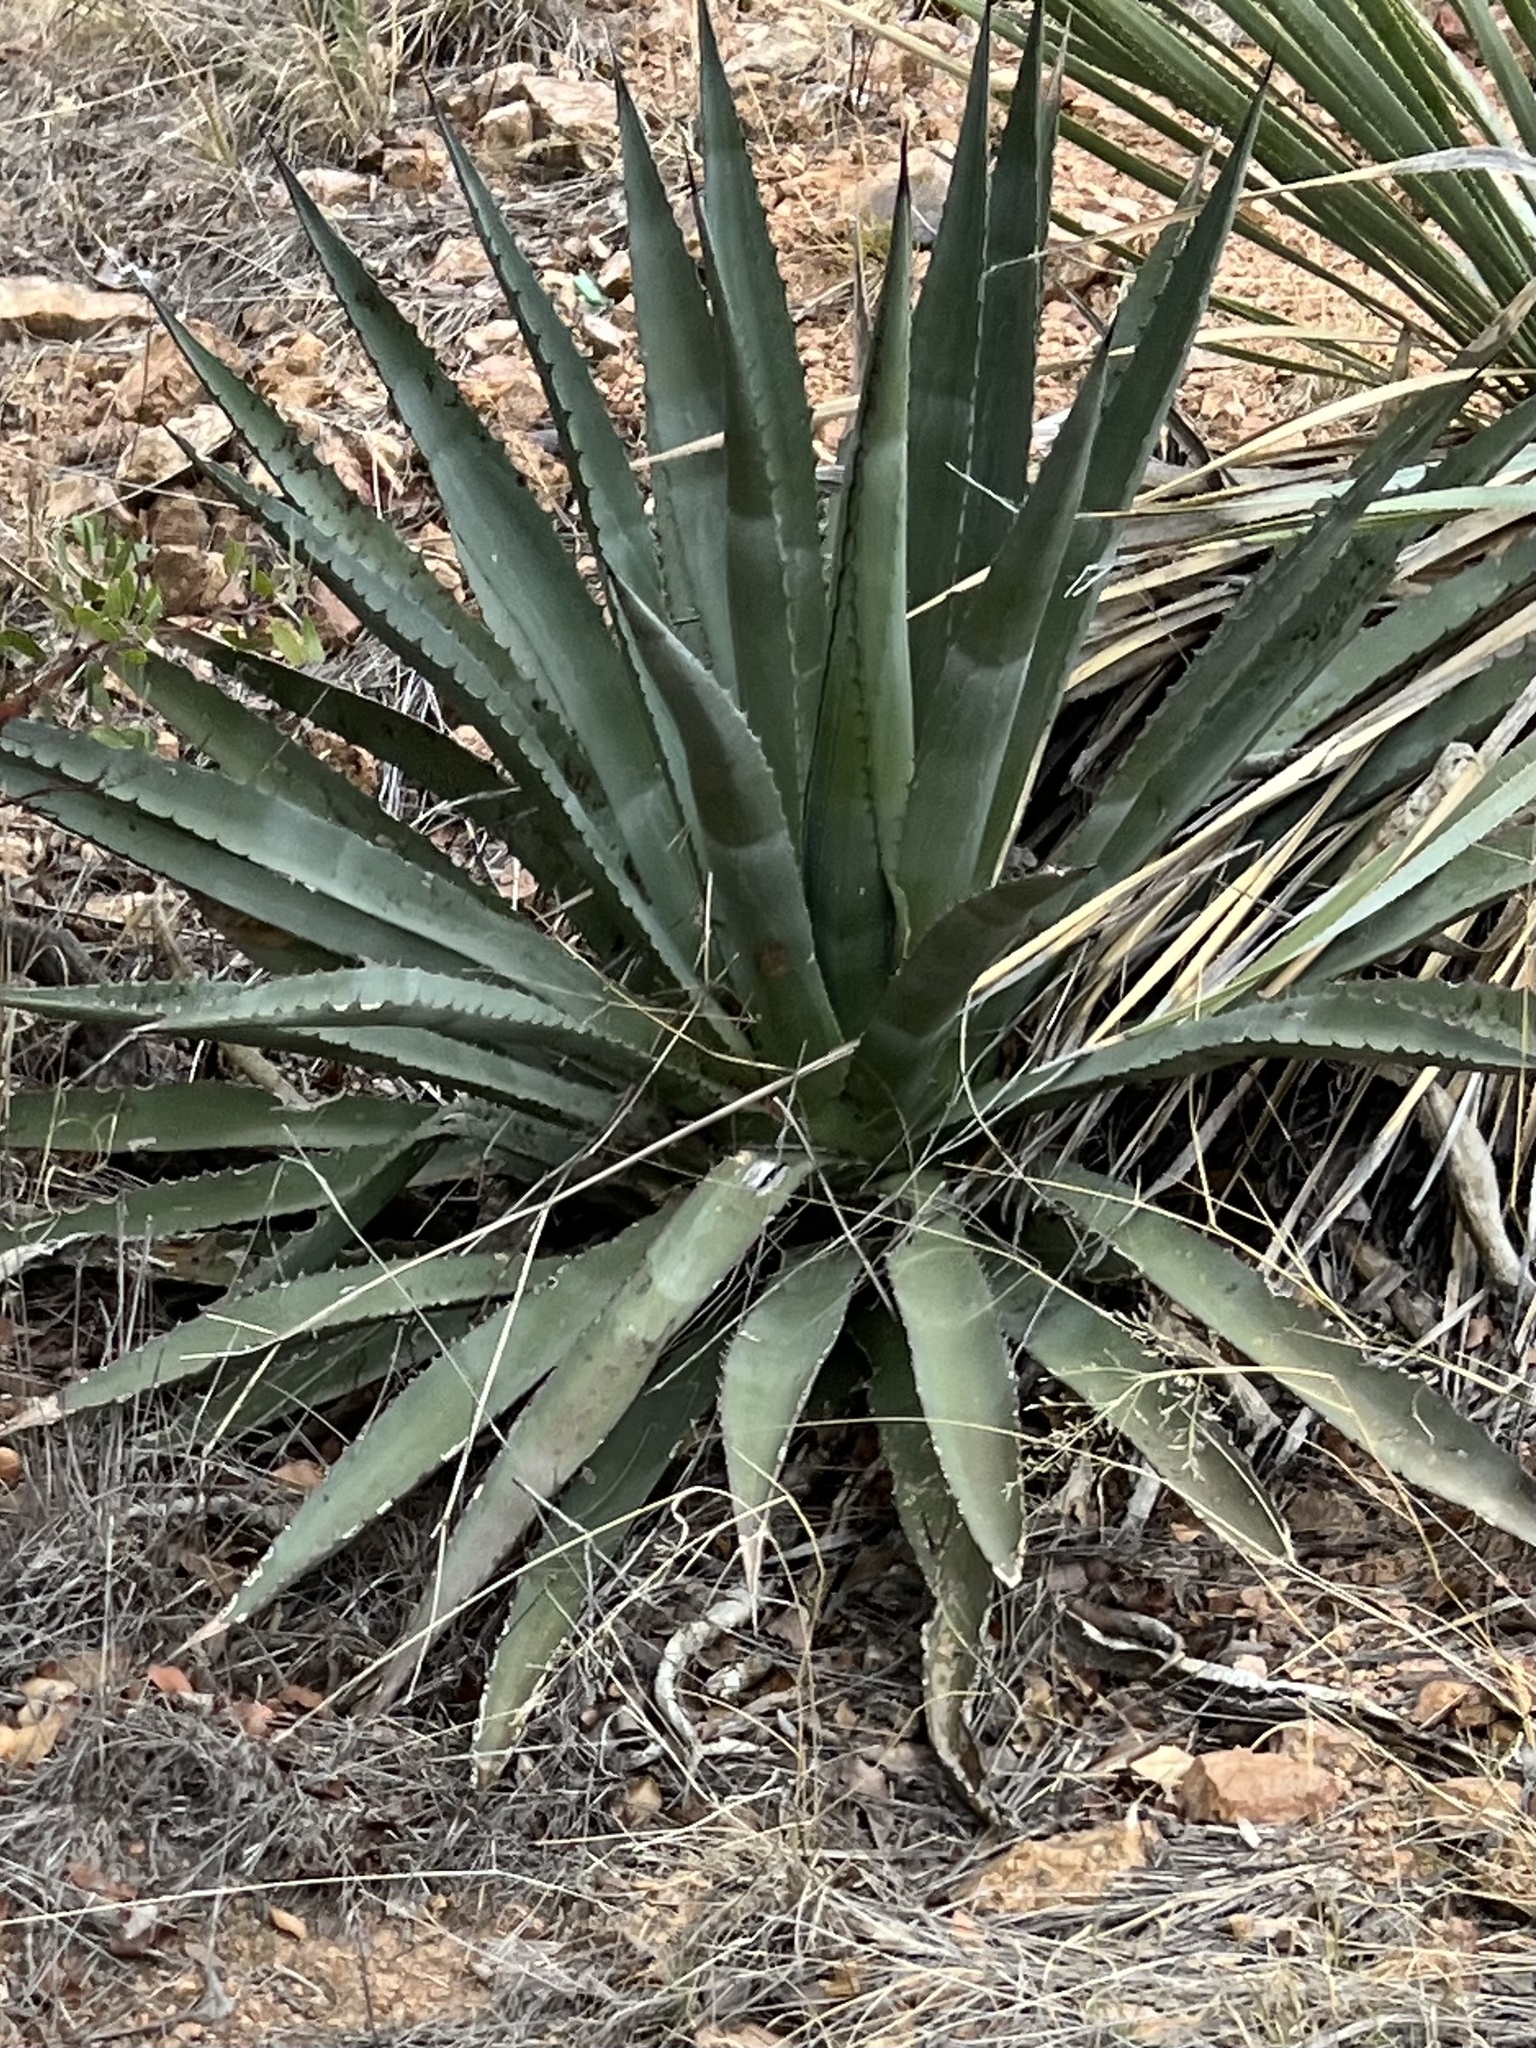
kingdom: Plantae
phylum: Tracheophyta
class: Liliopsida
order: Asparagales
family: Asparagaceae
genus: Agave
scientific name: Agave palmeri
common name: Palmer agave
